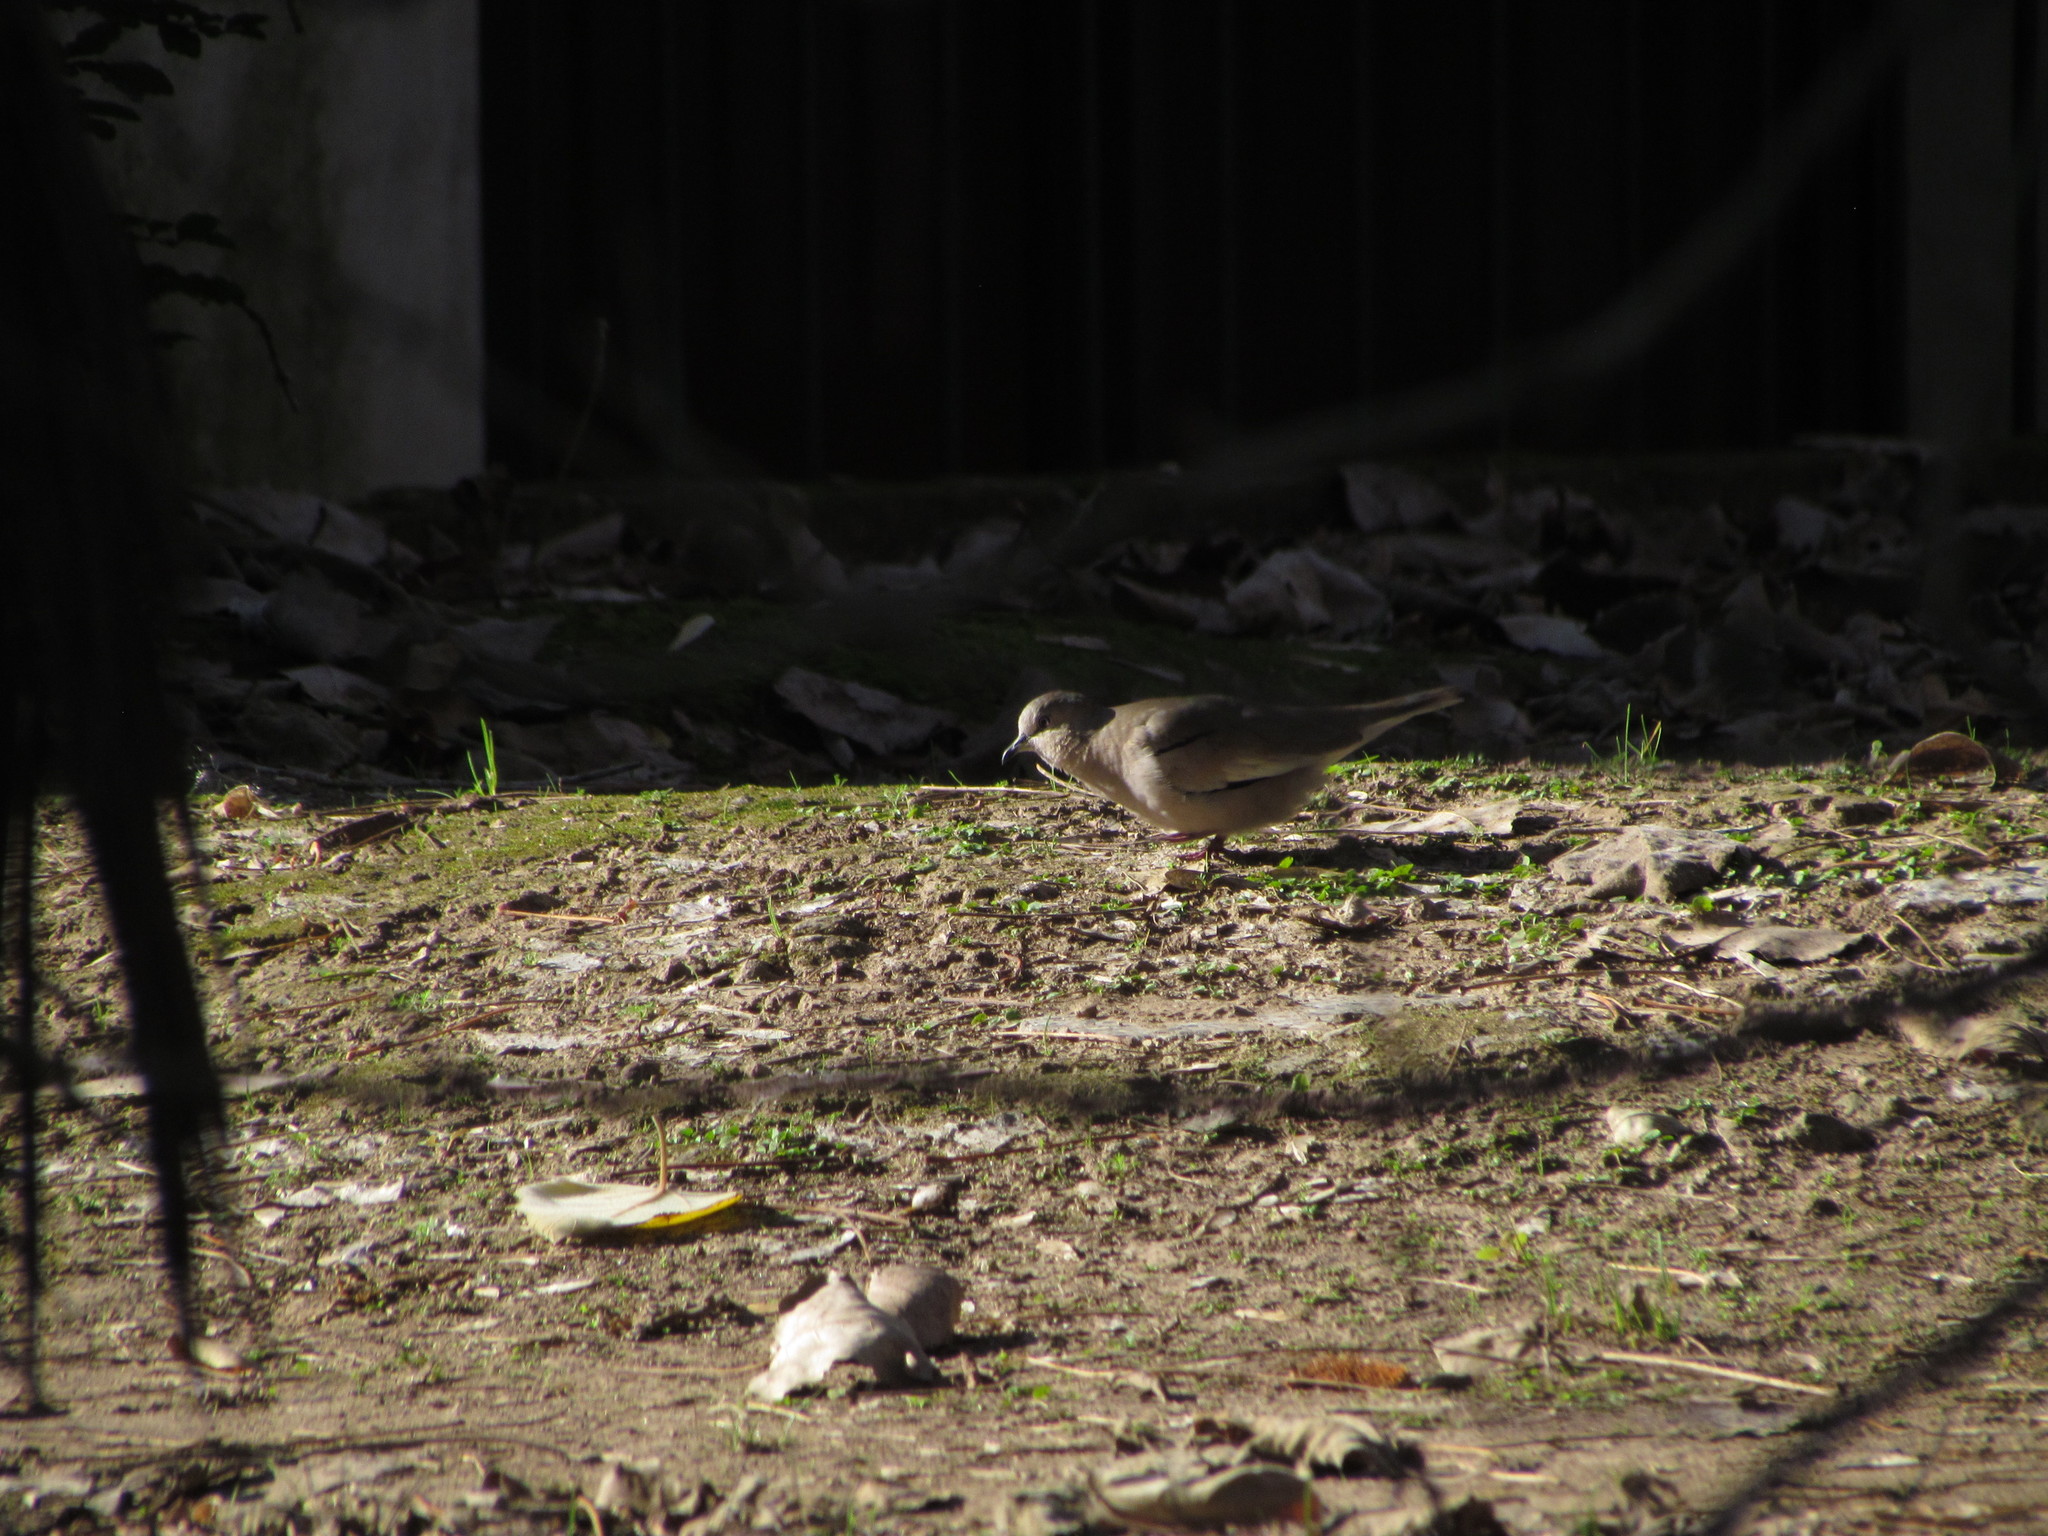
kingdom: Animalia
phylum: Chordata
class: Aves
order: Columbiformes
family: Columbidae
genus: Columbina
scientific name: Columbina picui
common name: Picui ground dove
